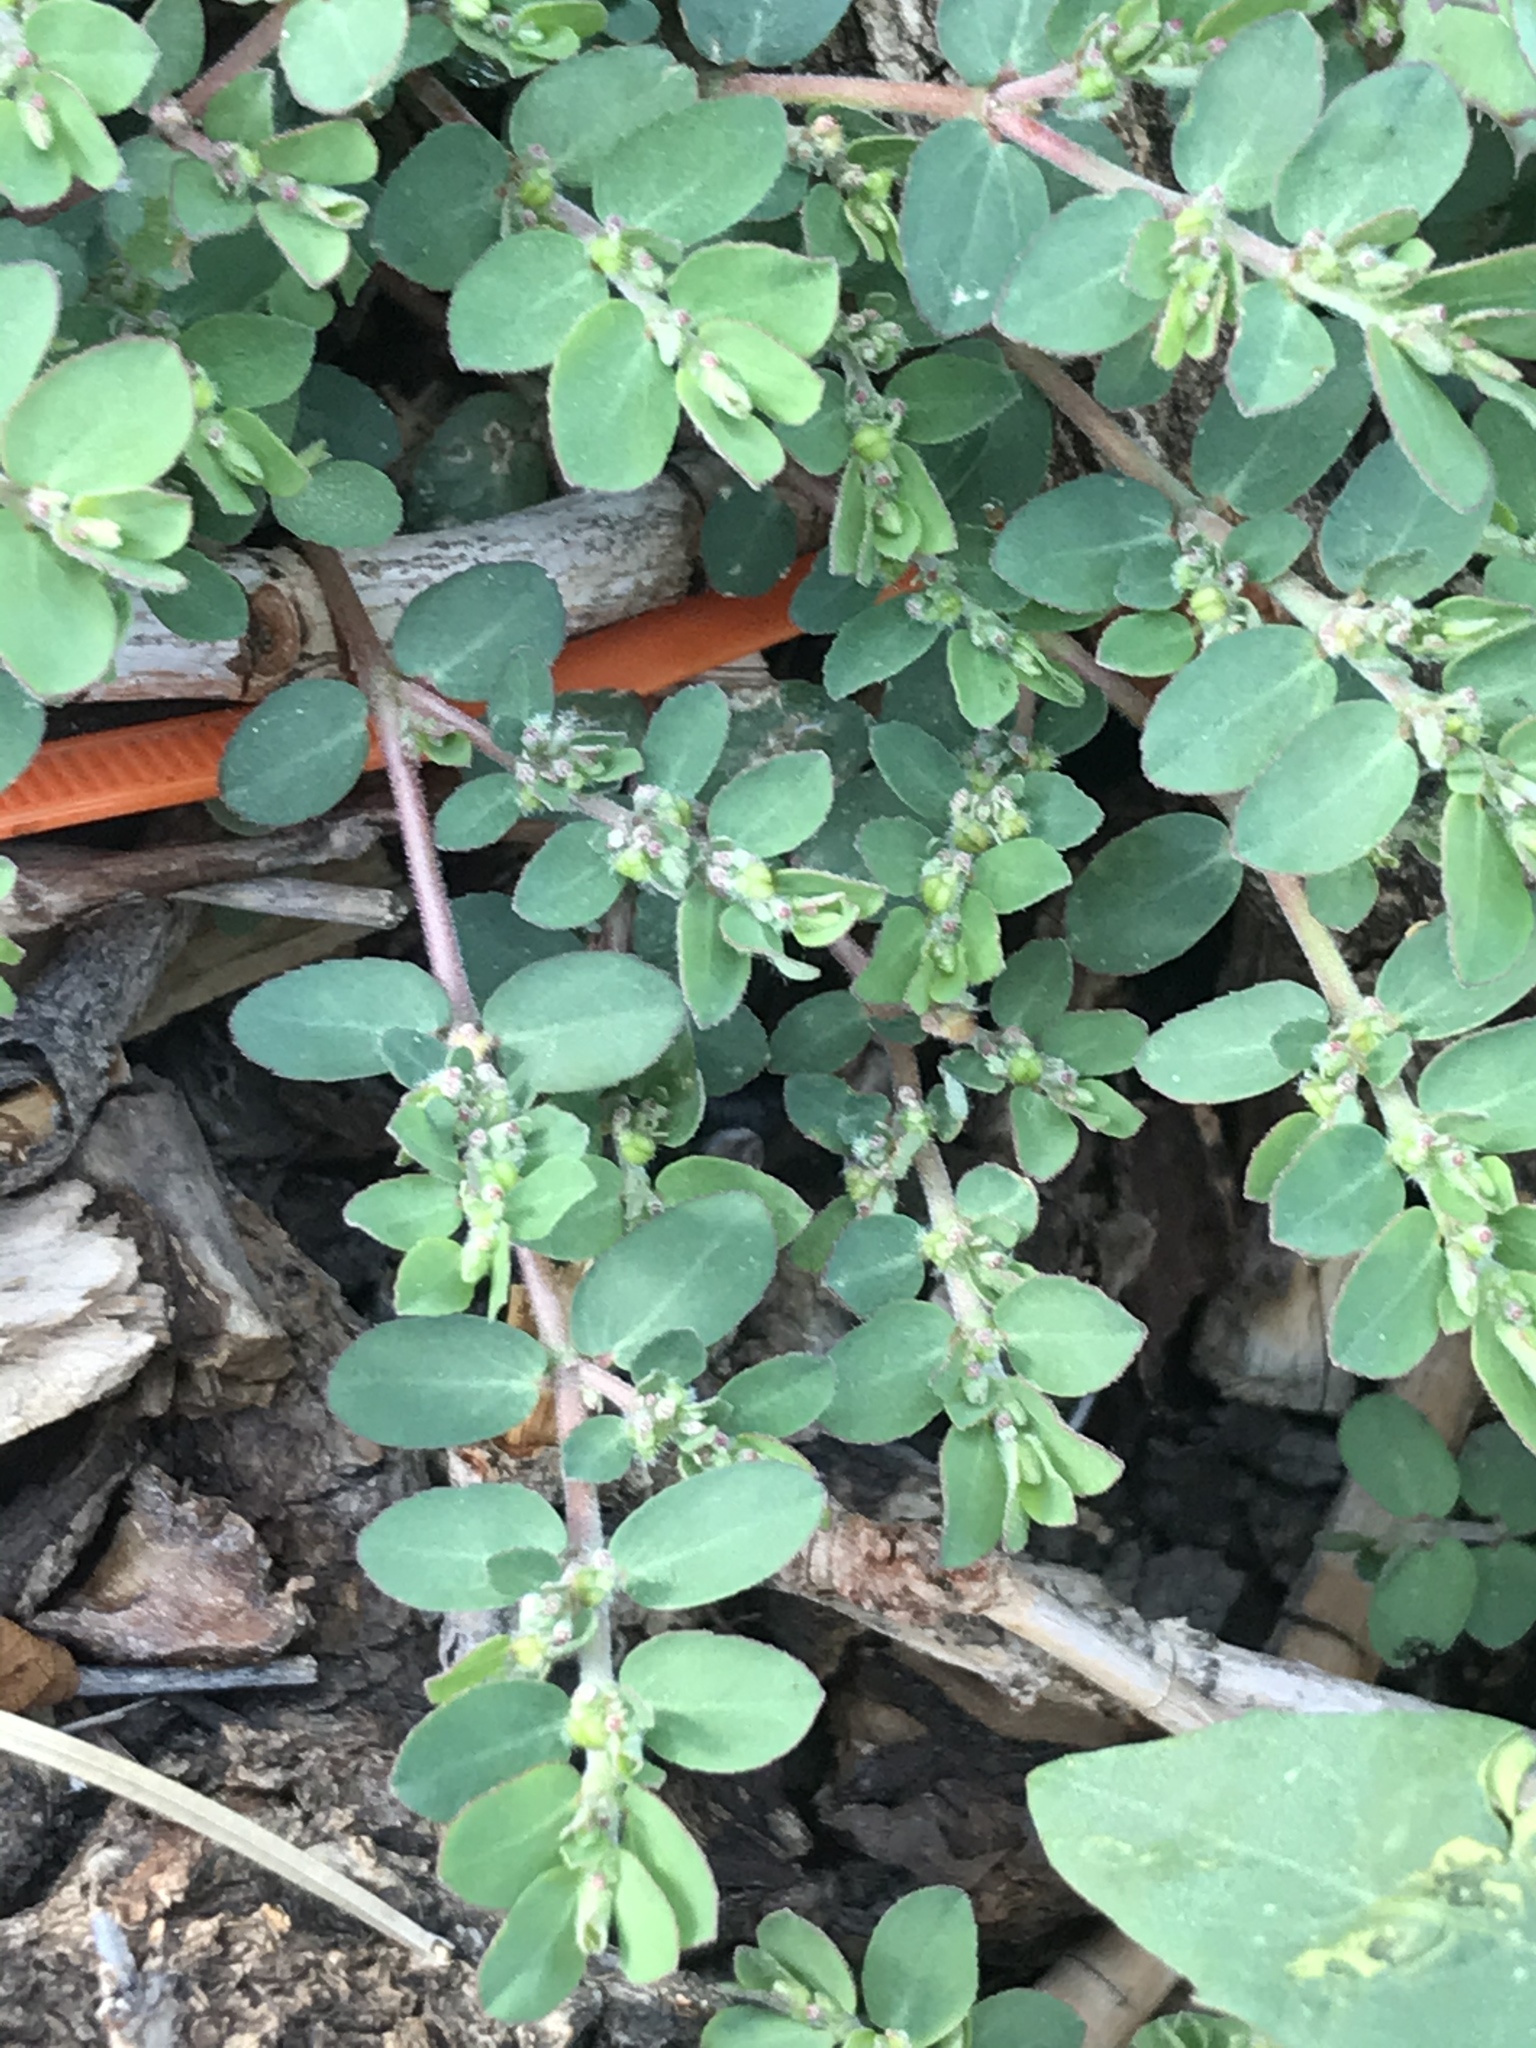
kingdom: Plantae
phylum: Tracheophyta
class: Magnoliopsida
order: Malpighiales
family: Euphorbiaceae
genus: Euphorbia
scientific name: Euphorbia prostrata
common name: Prostrate sandmat
